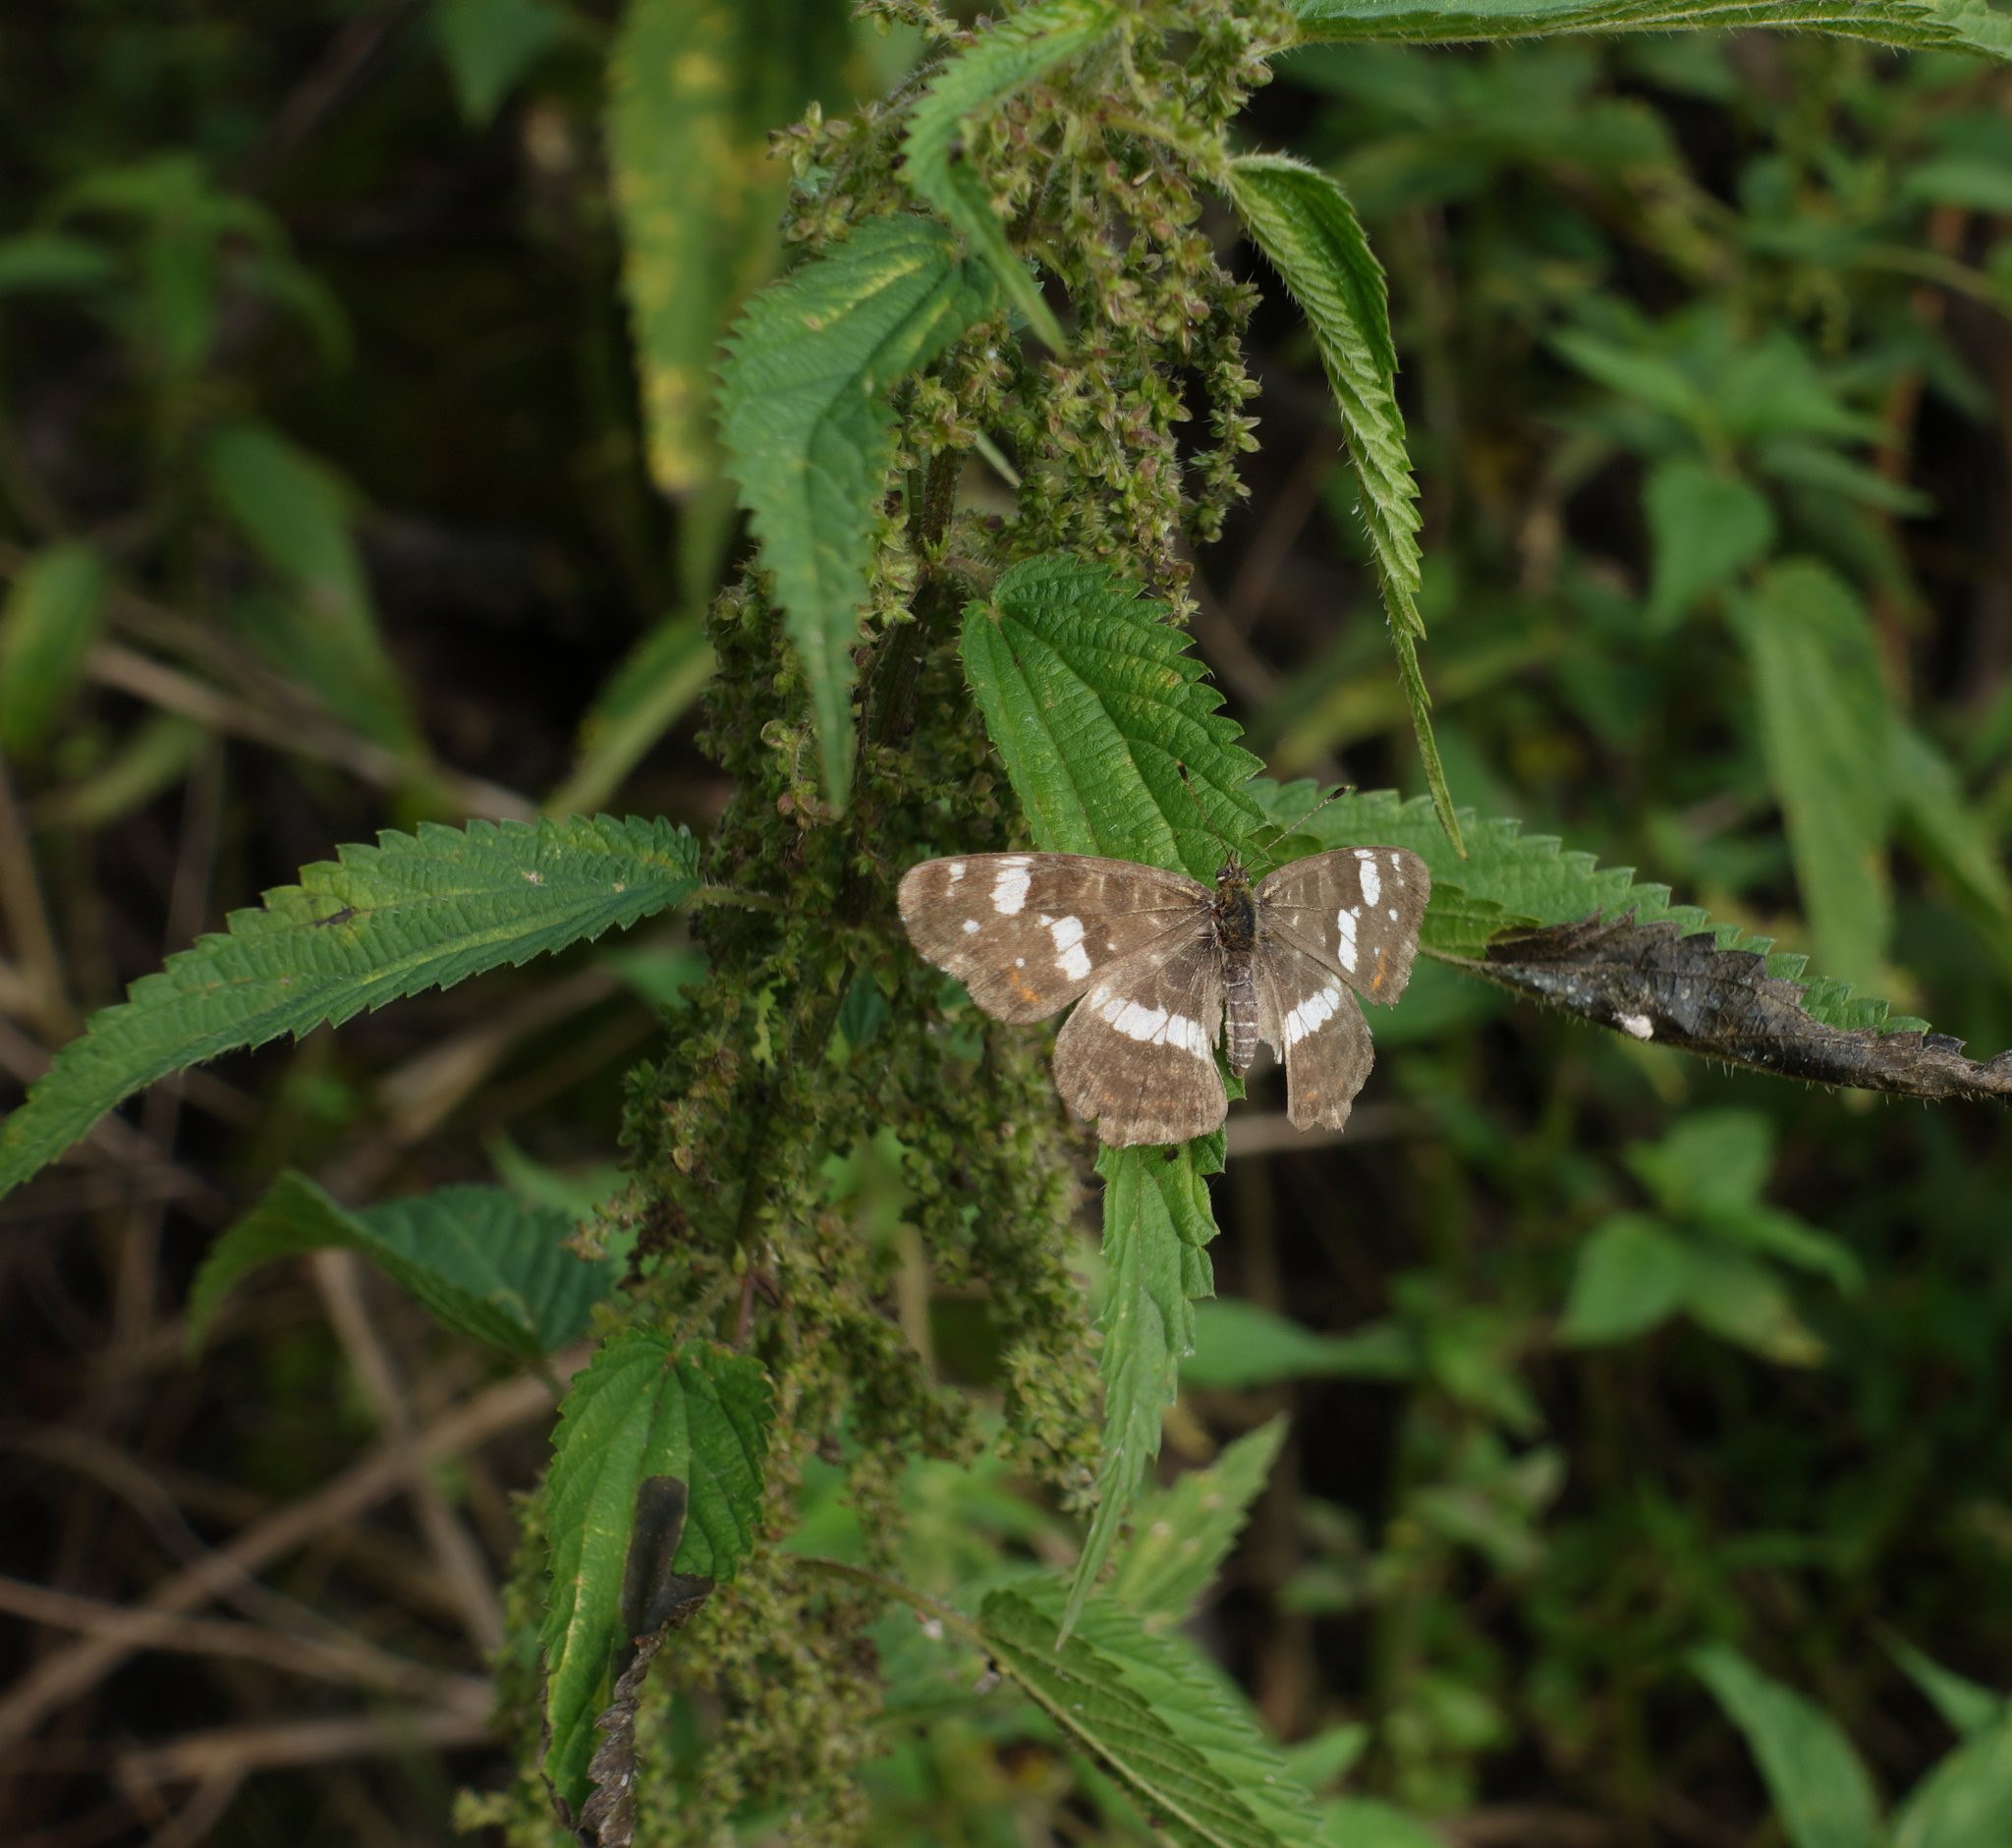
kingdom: Animalia
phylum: Arthropoda
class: Insecta
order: Lepidoptera
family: Nymphalidae
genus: Araschnia
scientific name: Araschnia levana
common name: Map butterfly
